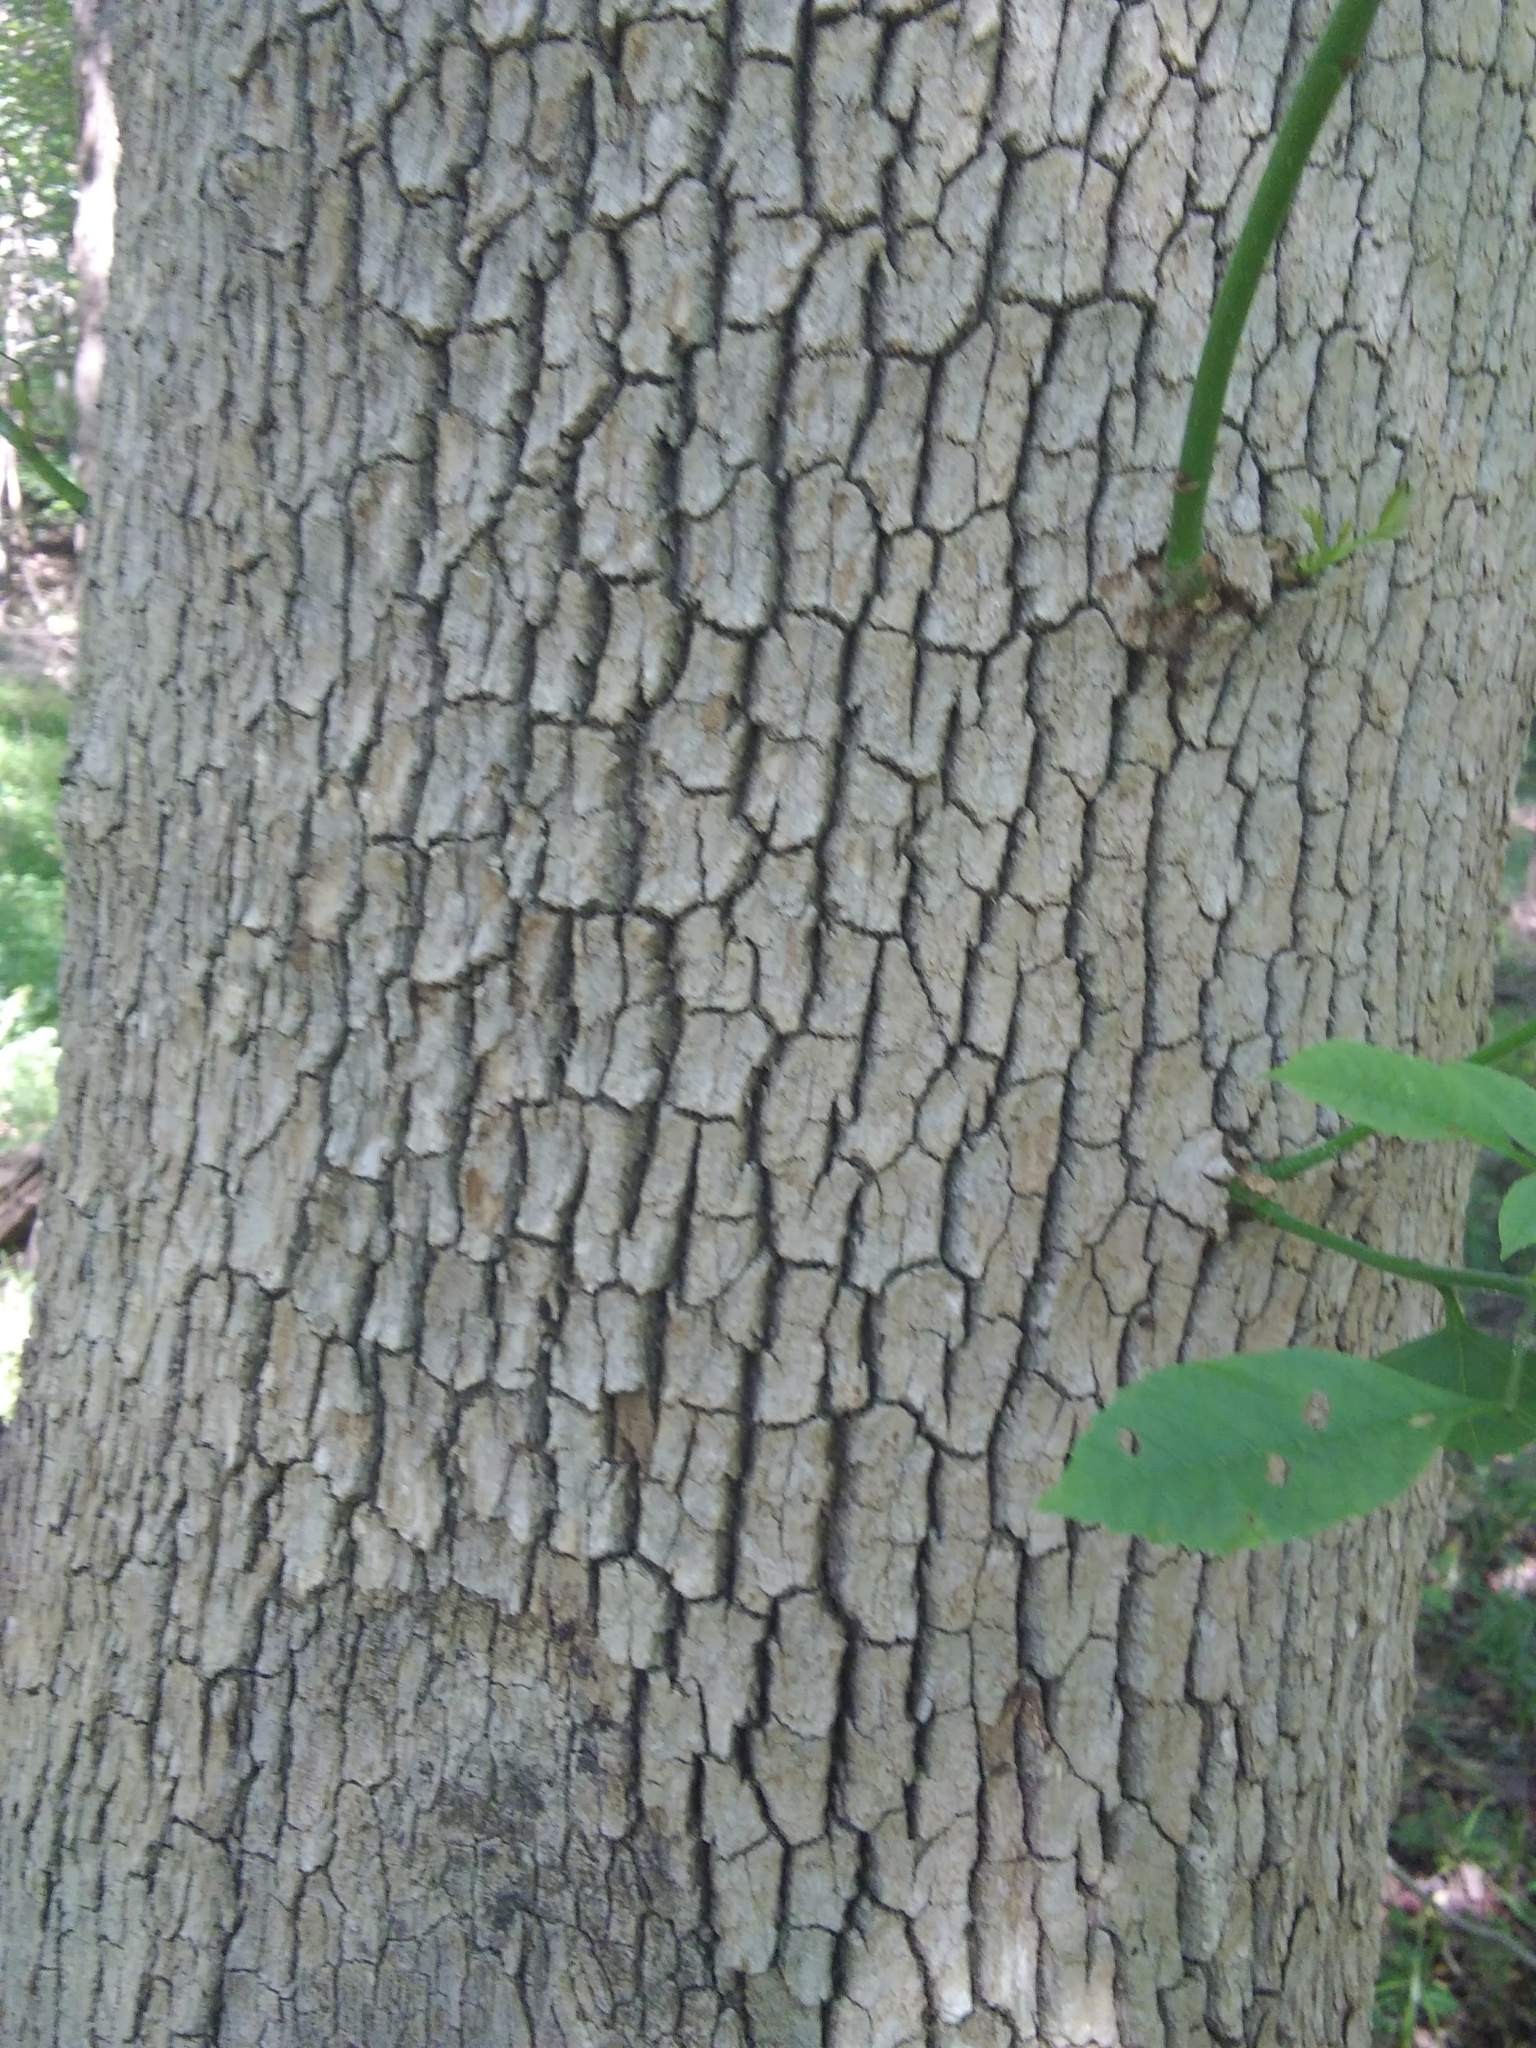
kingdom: Plantae
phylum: Tracheophyta
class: Magnoliopsida
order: Lamiales
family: Oleaceae
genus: Fraxinus
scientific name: Fraxinus pennsylvanica
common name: Green ash
